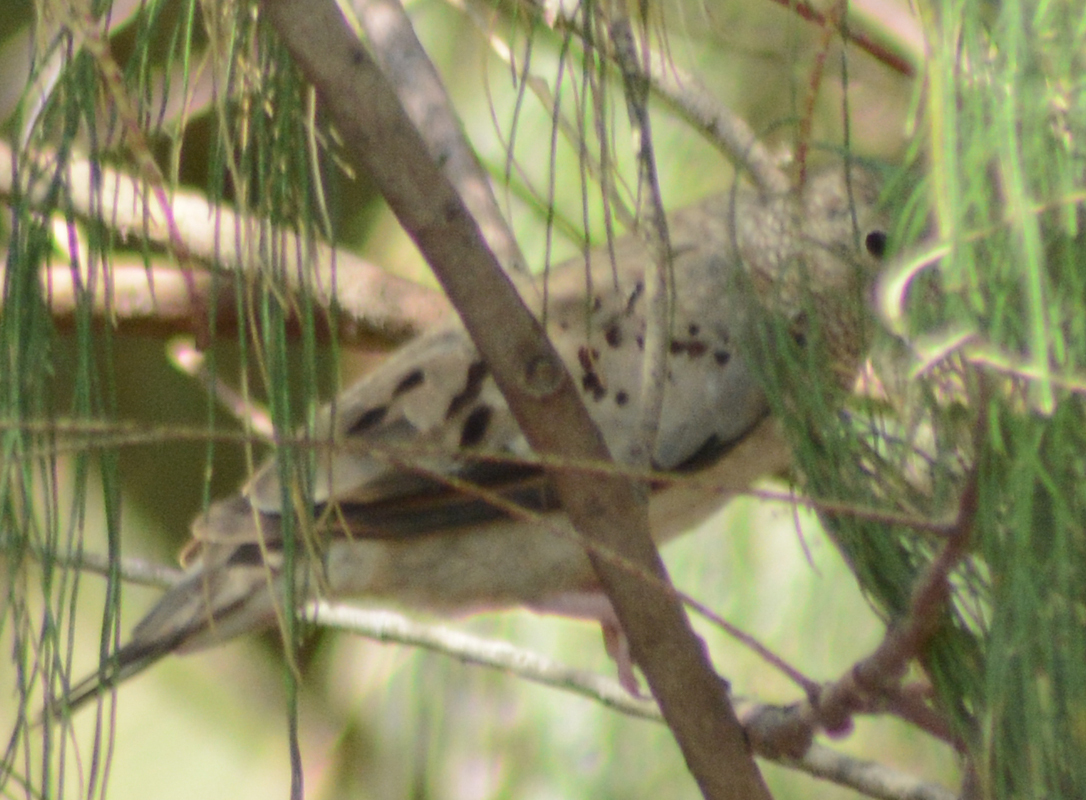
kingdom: Animalia
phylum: Chordata
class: Aves
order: Columbiformes
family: Columbidae
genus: Columbina
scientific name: Columbina passerina
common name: Common ground-dove
